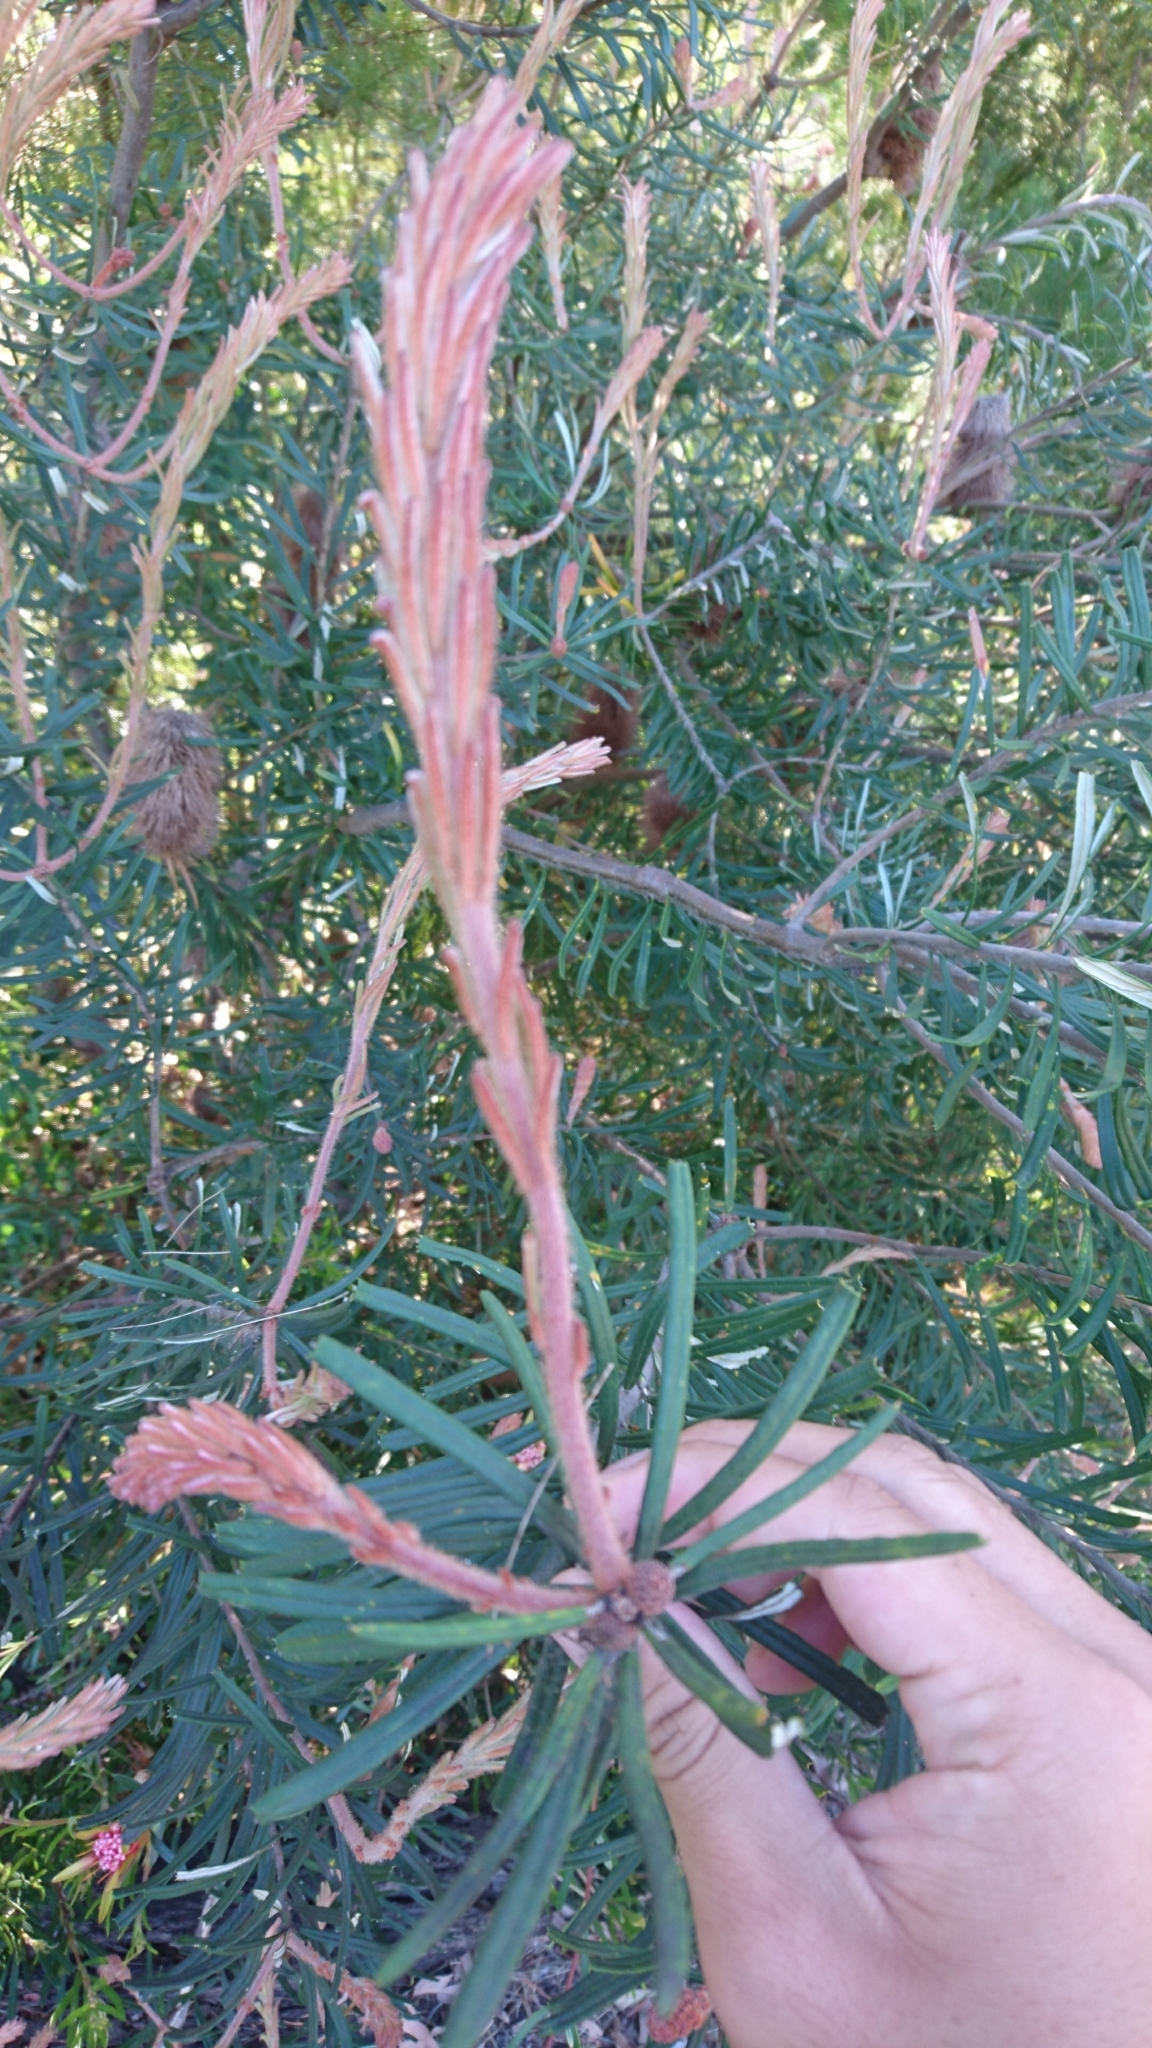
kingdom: Plantae
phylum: Tracheophyta
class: Magnoliopsida
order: Proteales
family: Proteaceae
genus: Banksia
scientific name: Banksia marginata
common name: Silver banksia
